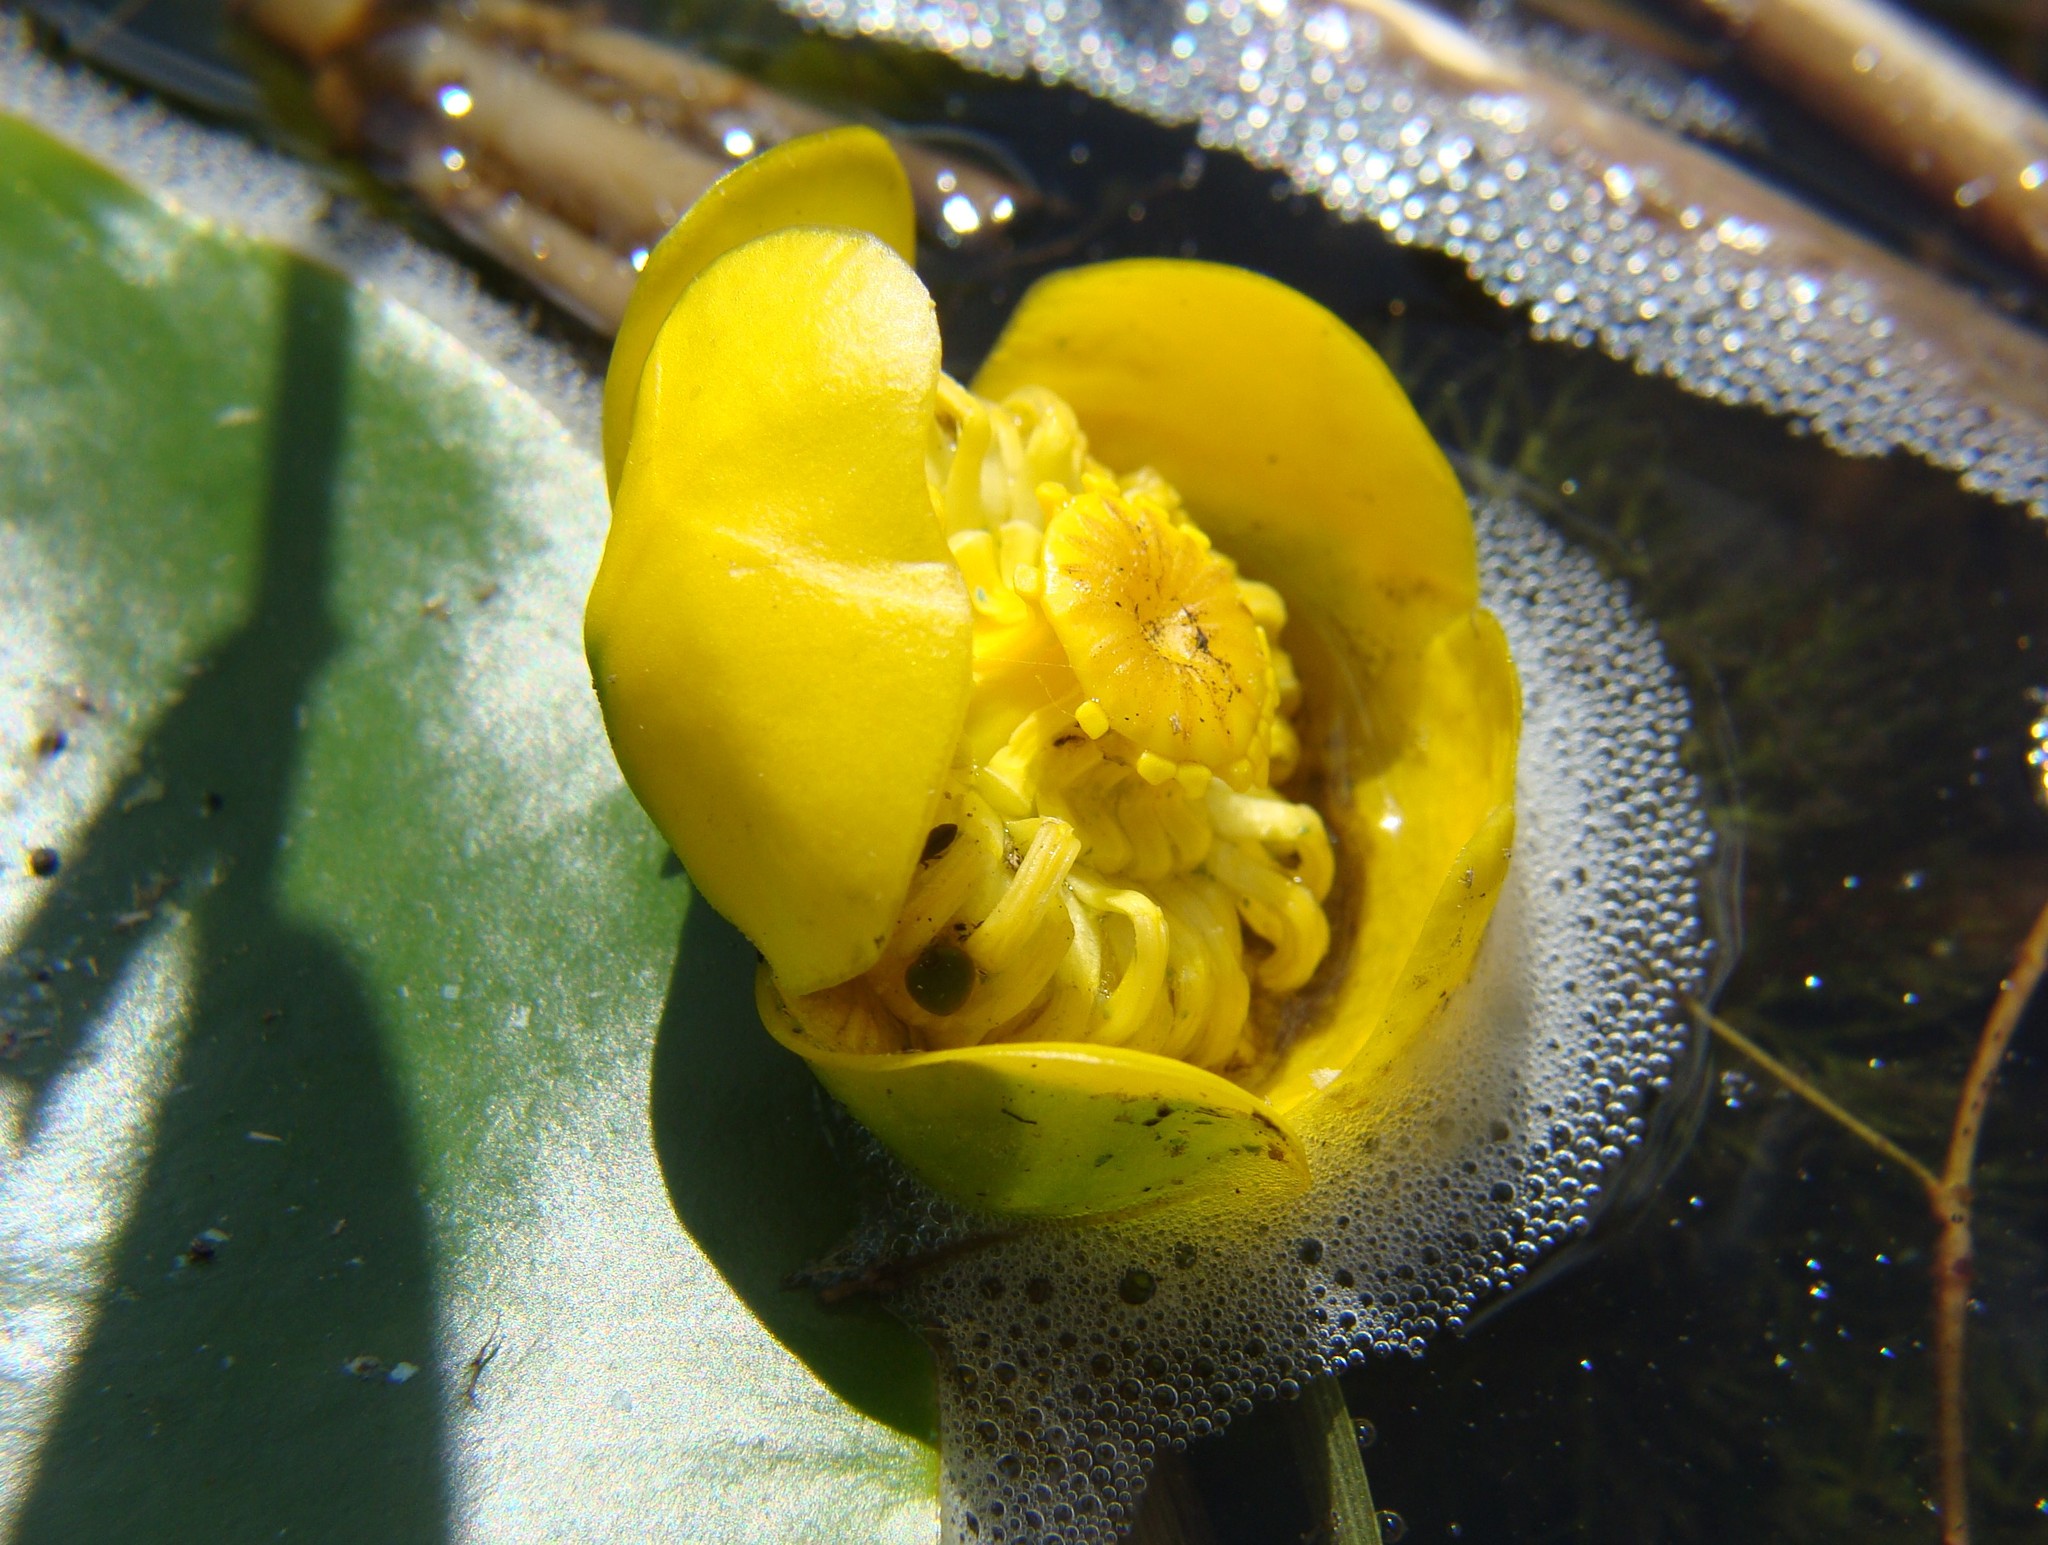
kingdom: Plantae
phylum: Tracheophyta
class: Magnoliopsida
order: Nymphaeales
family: Nymphaeaceae
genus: Nuphar
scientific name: Nuphar lutea
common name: Yellow water-lily
